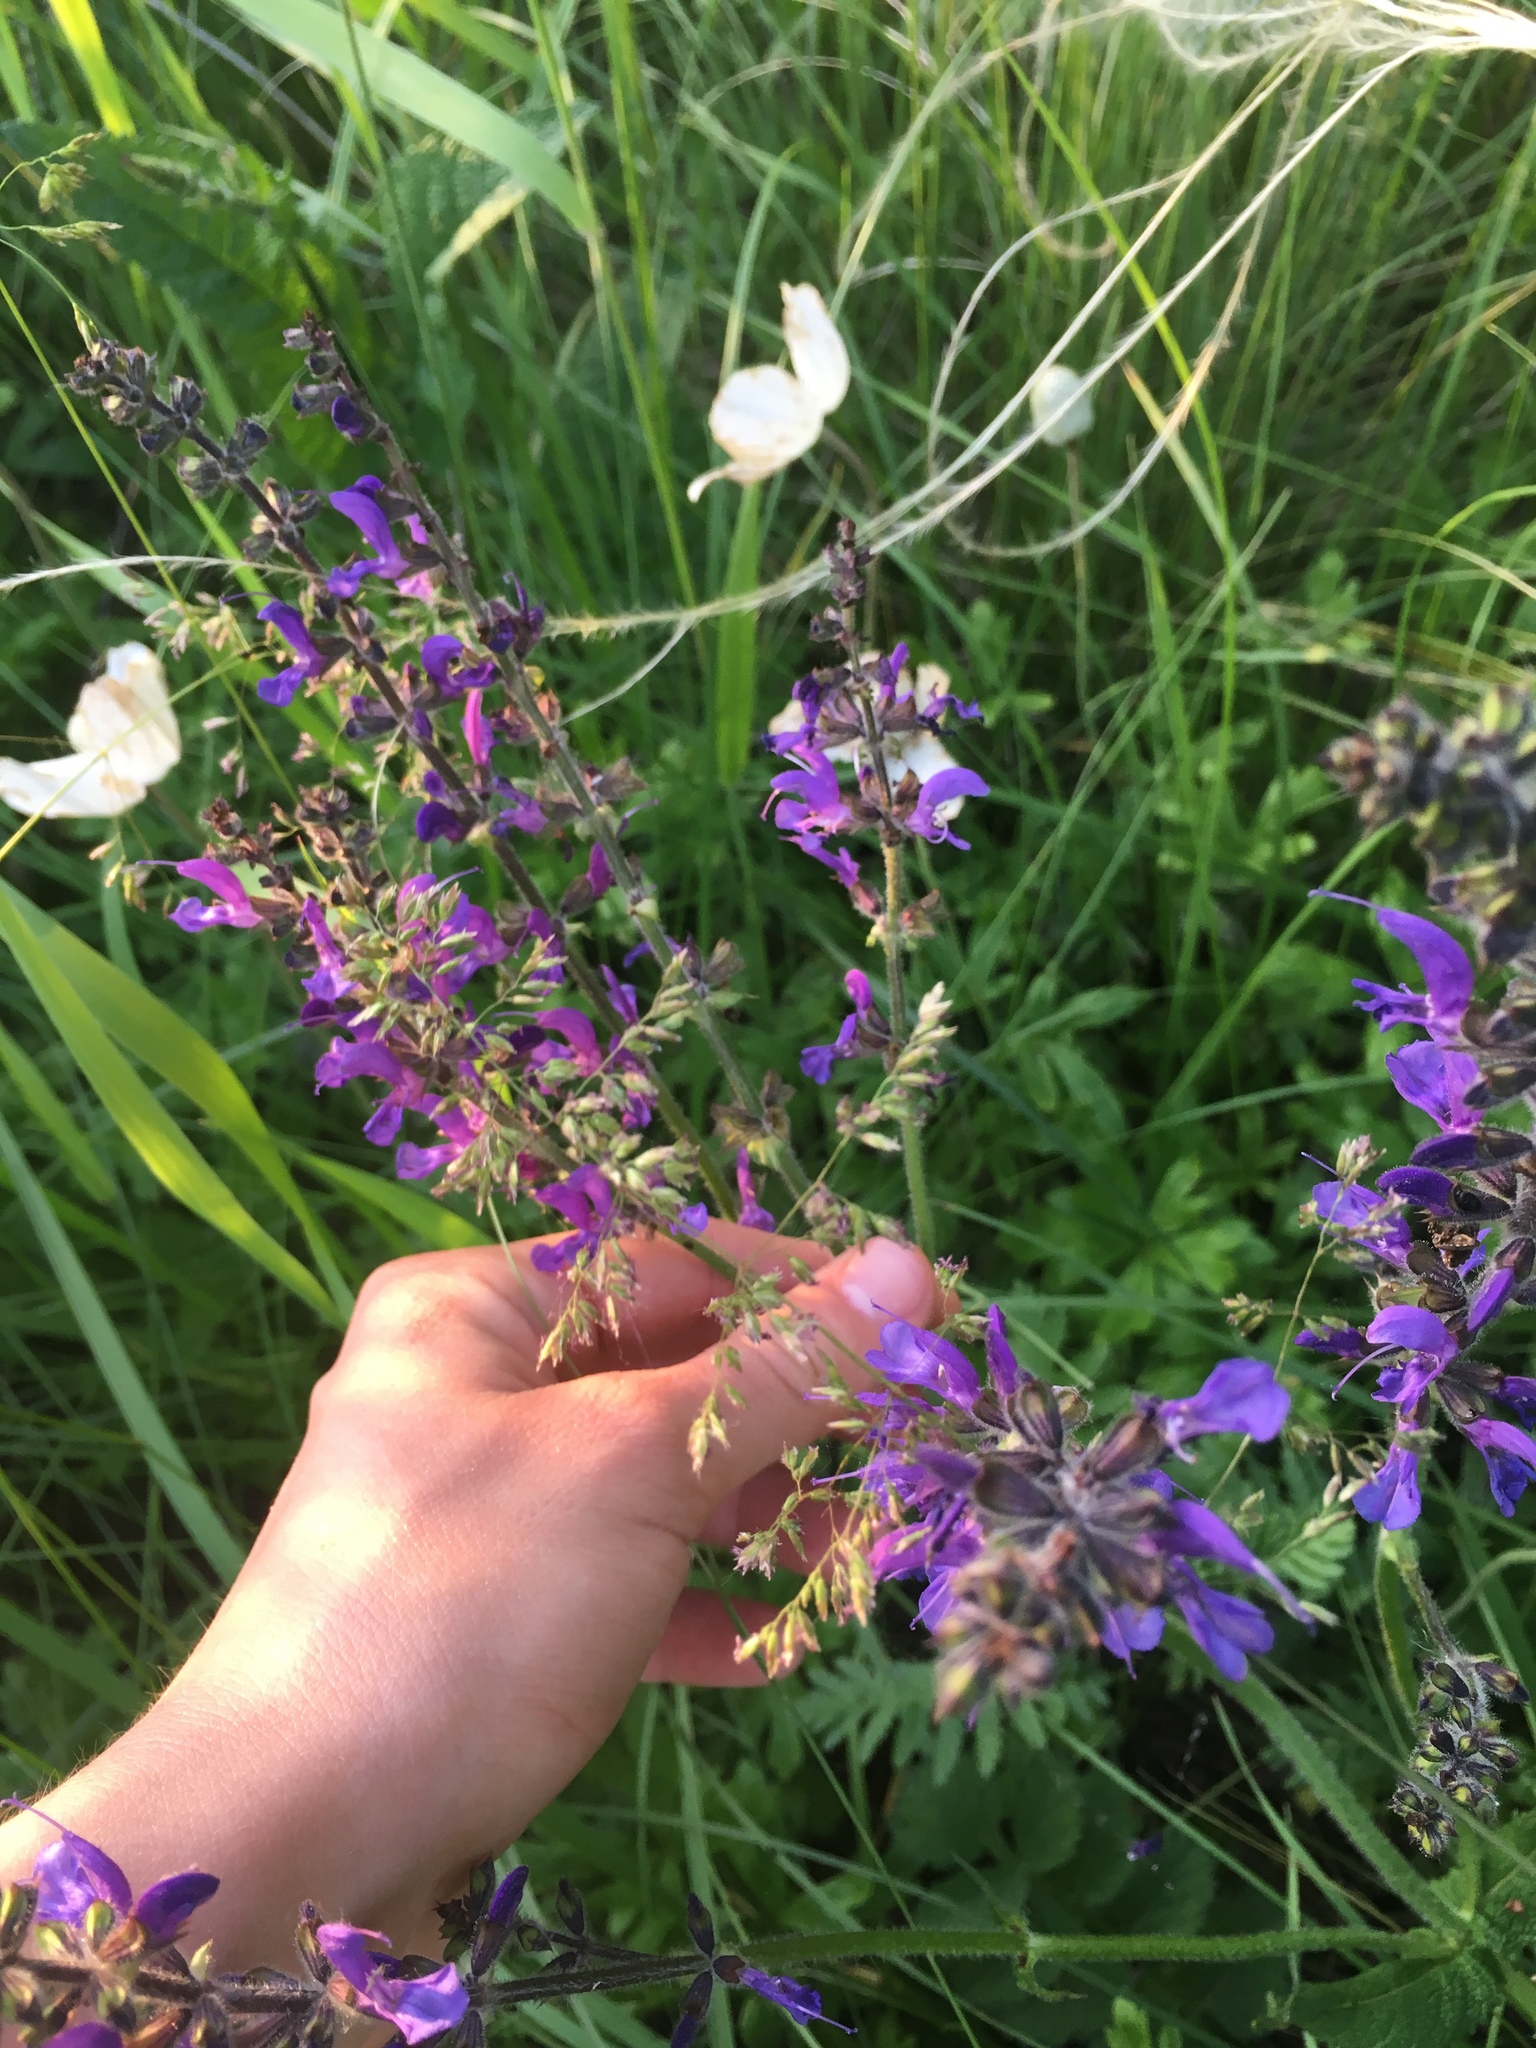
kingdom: Plantae
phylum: Tracheophyta
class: Magnoliopsida
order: Lamiales
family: Lamiaceae
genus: Salvia
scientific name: Salvia pratensis
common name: Meadow sage
